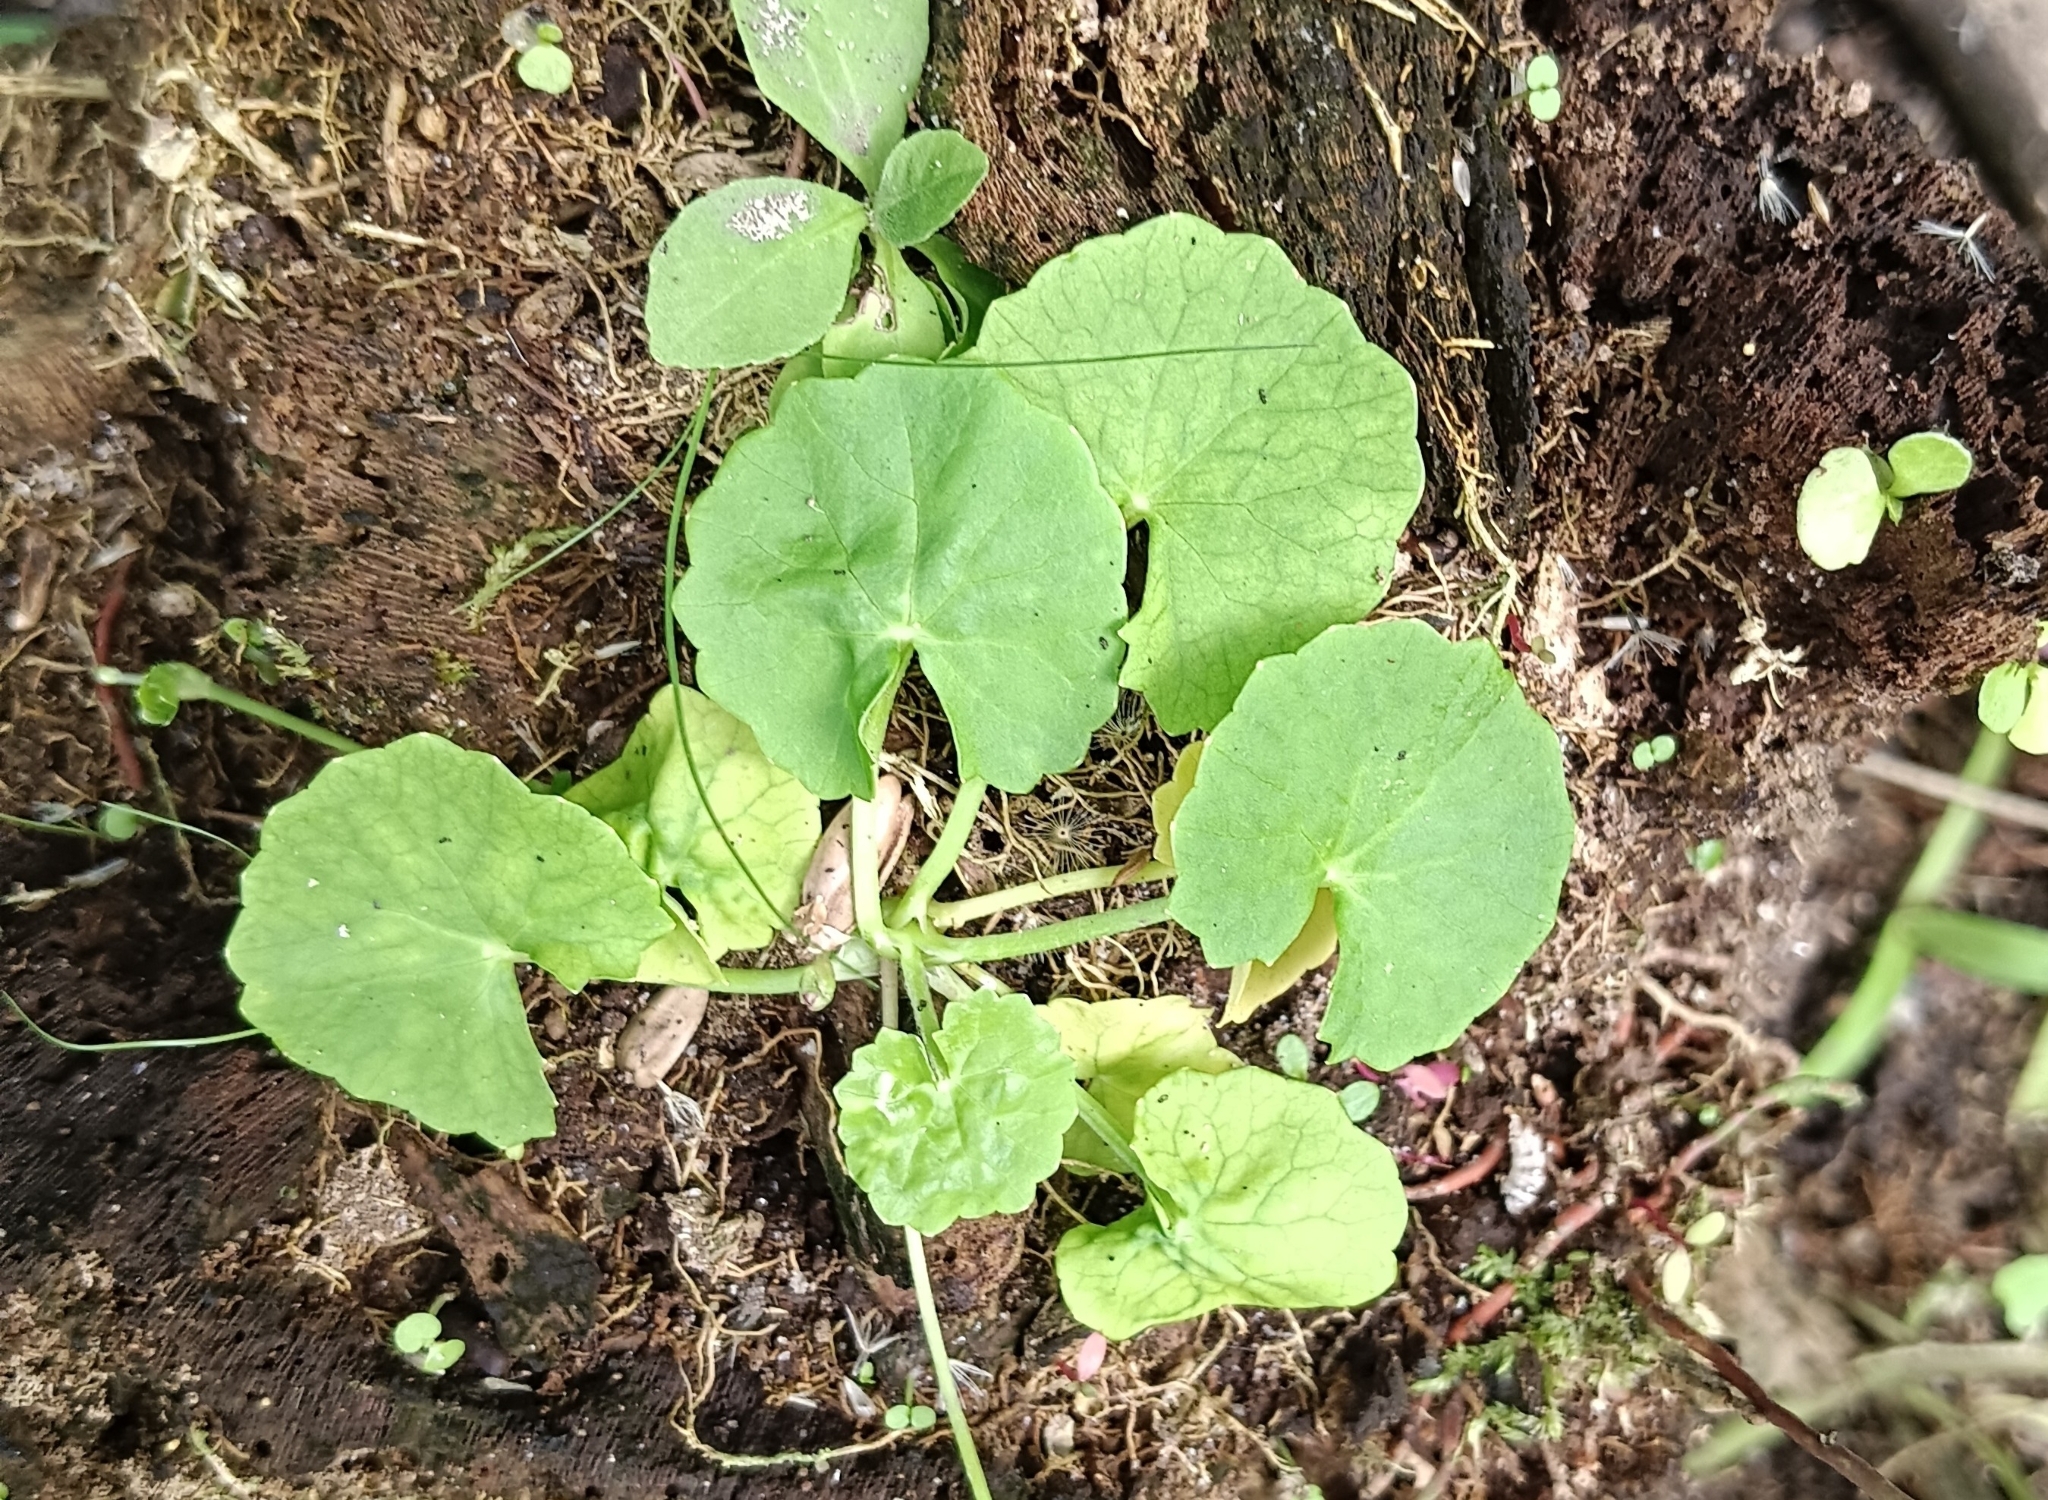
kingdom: Plantae
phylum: Tracheophyta
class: Magnoliopsida
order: Apiales
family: Apiaceae
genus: Centella
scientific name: Centella asiatica
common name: Spadeleaf
